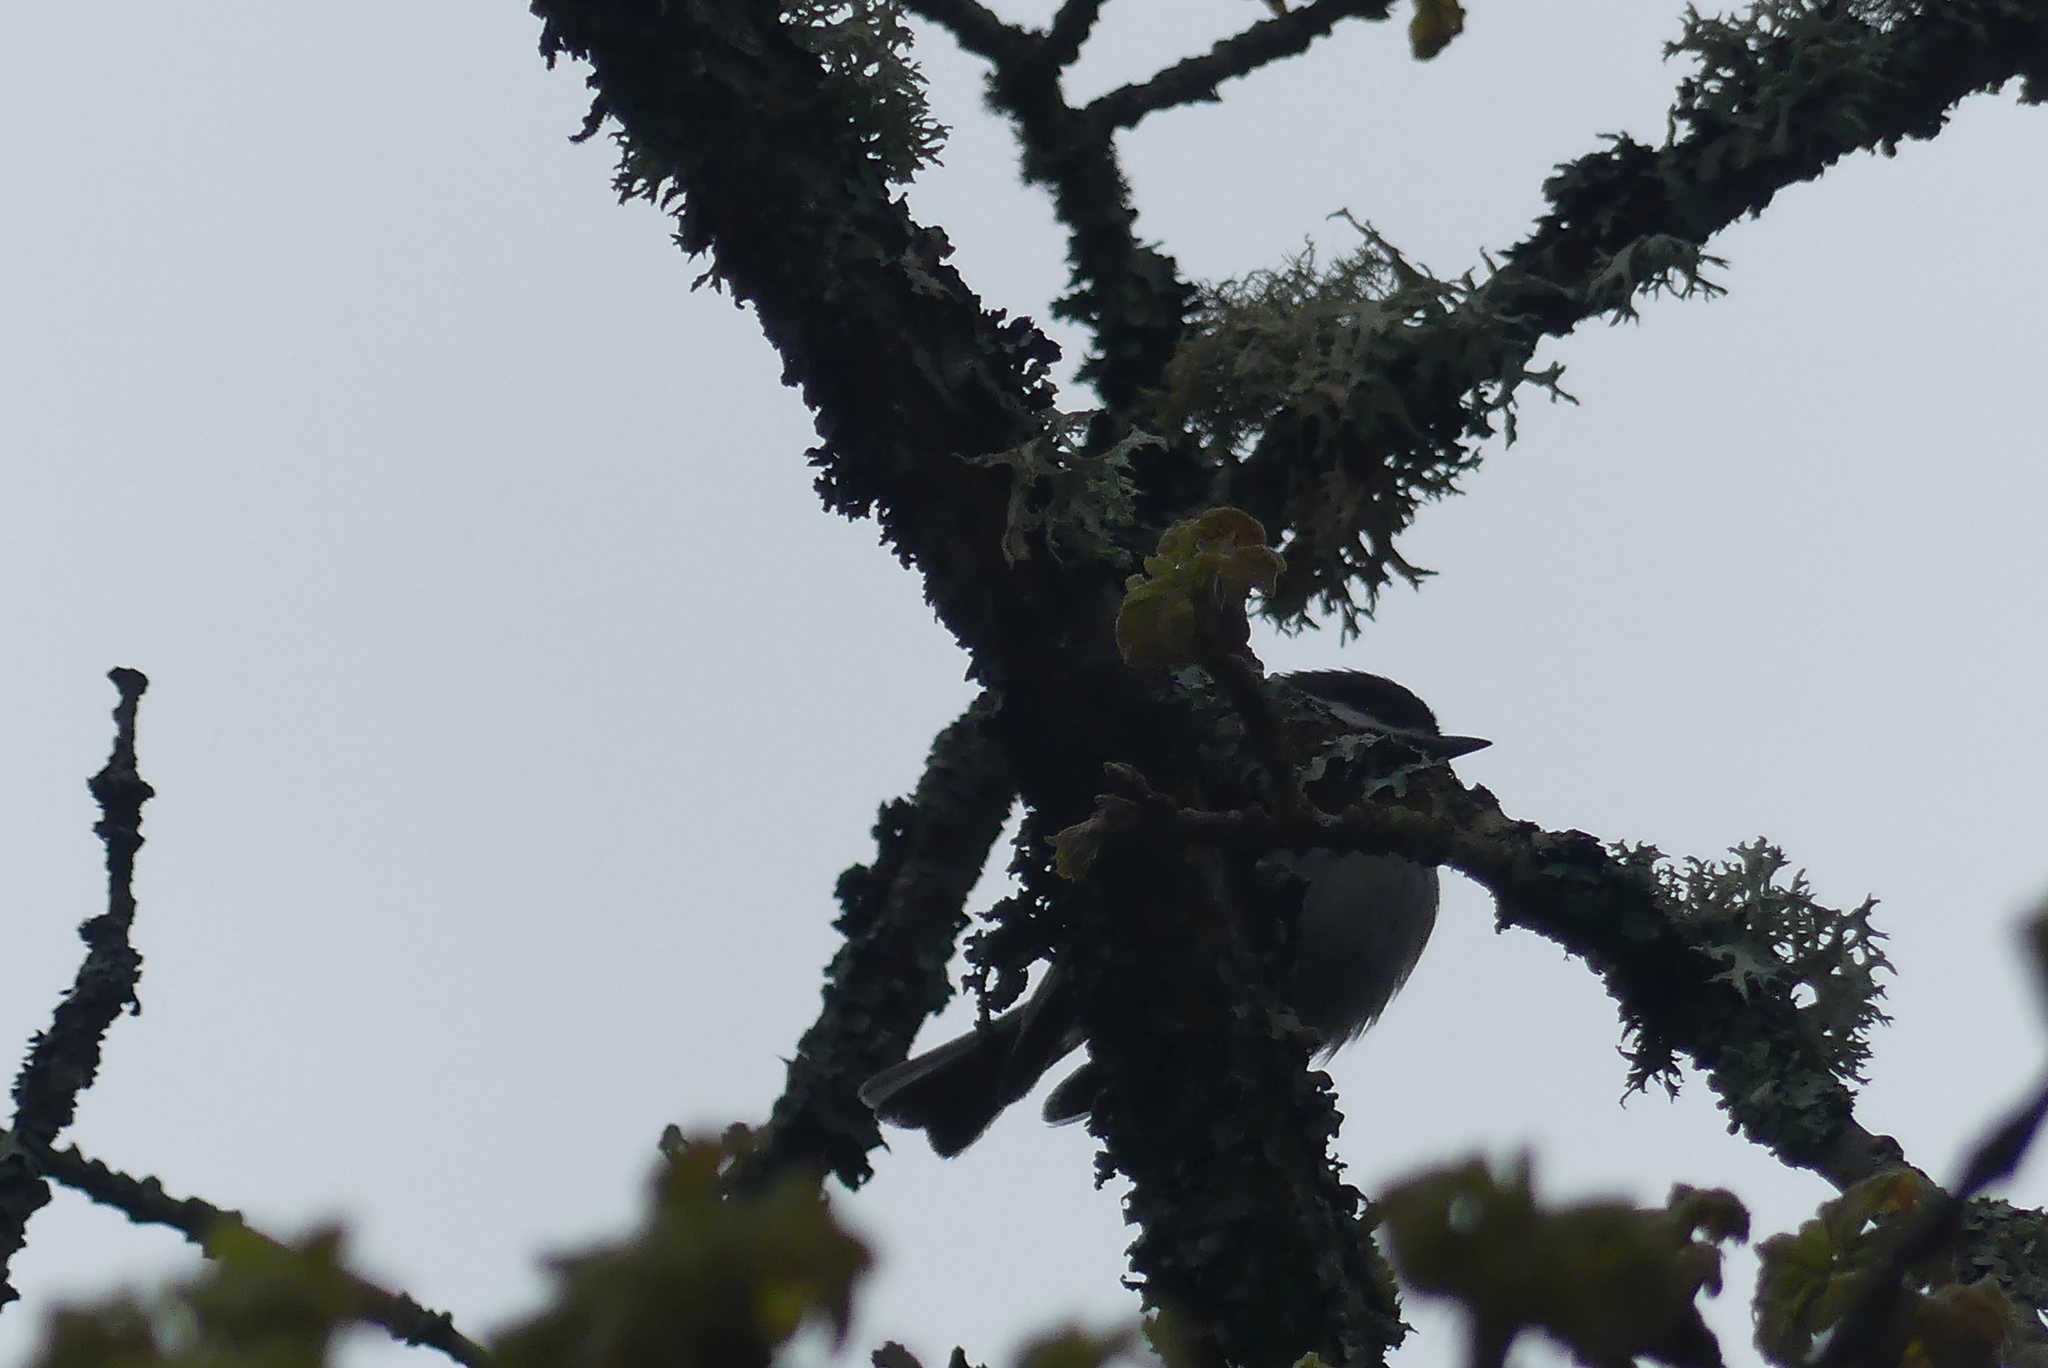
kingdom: Animalia
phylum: Chordata
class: Aves
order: Passeriformes
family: Paridae
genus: Poecile
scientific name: Poecile rufescens
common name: Chestnut-backed chickadee
